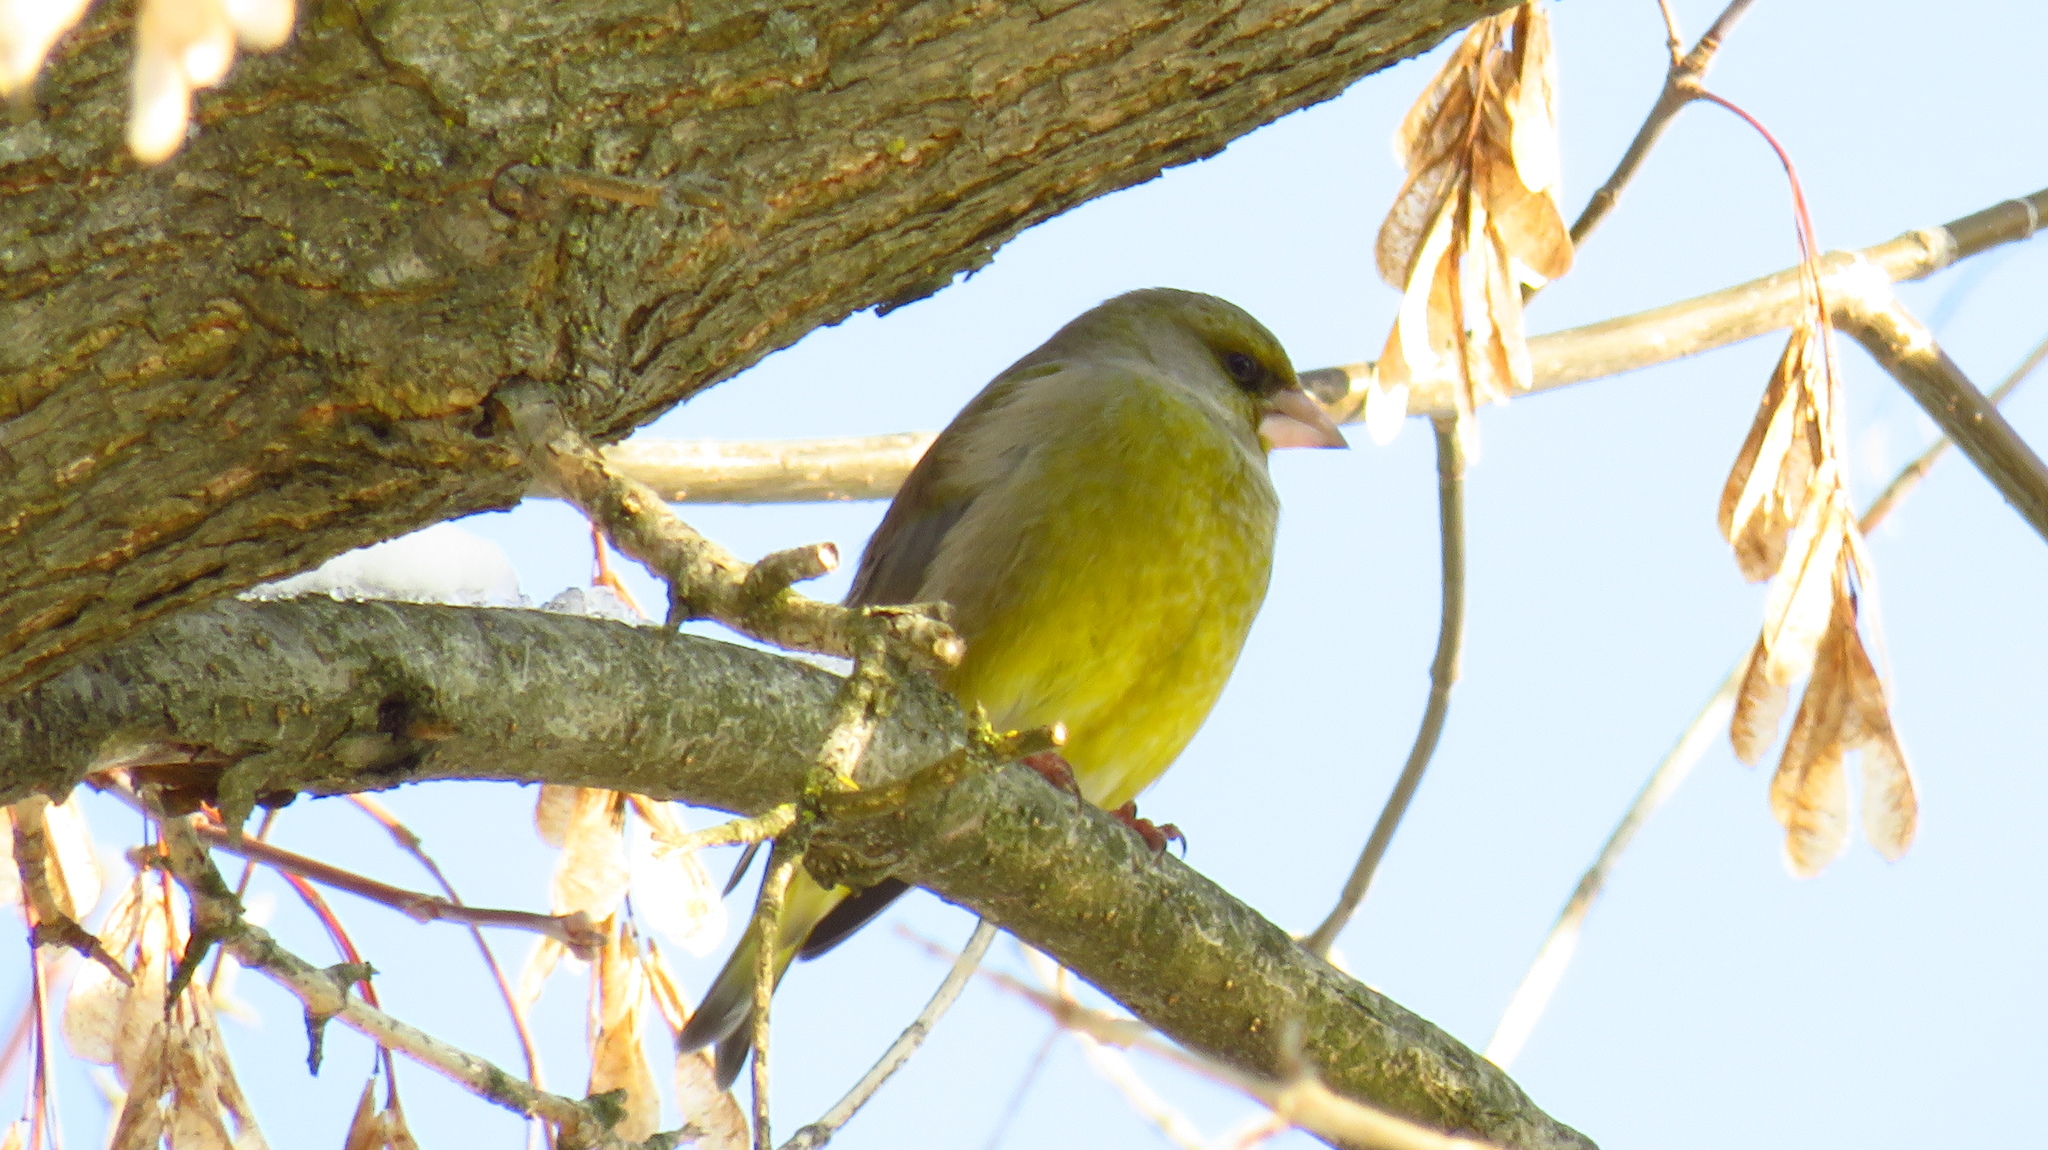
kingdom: Plantae
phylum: Tracheophyta
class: Liliopsida
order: Poales
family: Poaceae
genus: Chloris
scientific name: Chloris chloris
